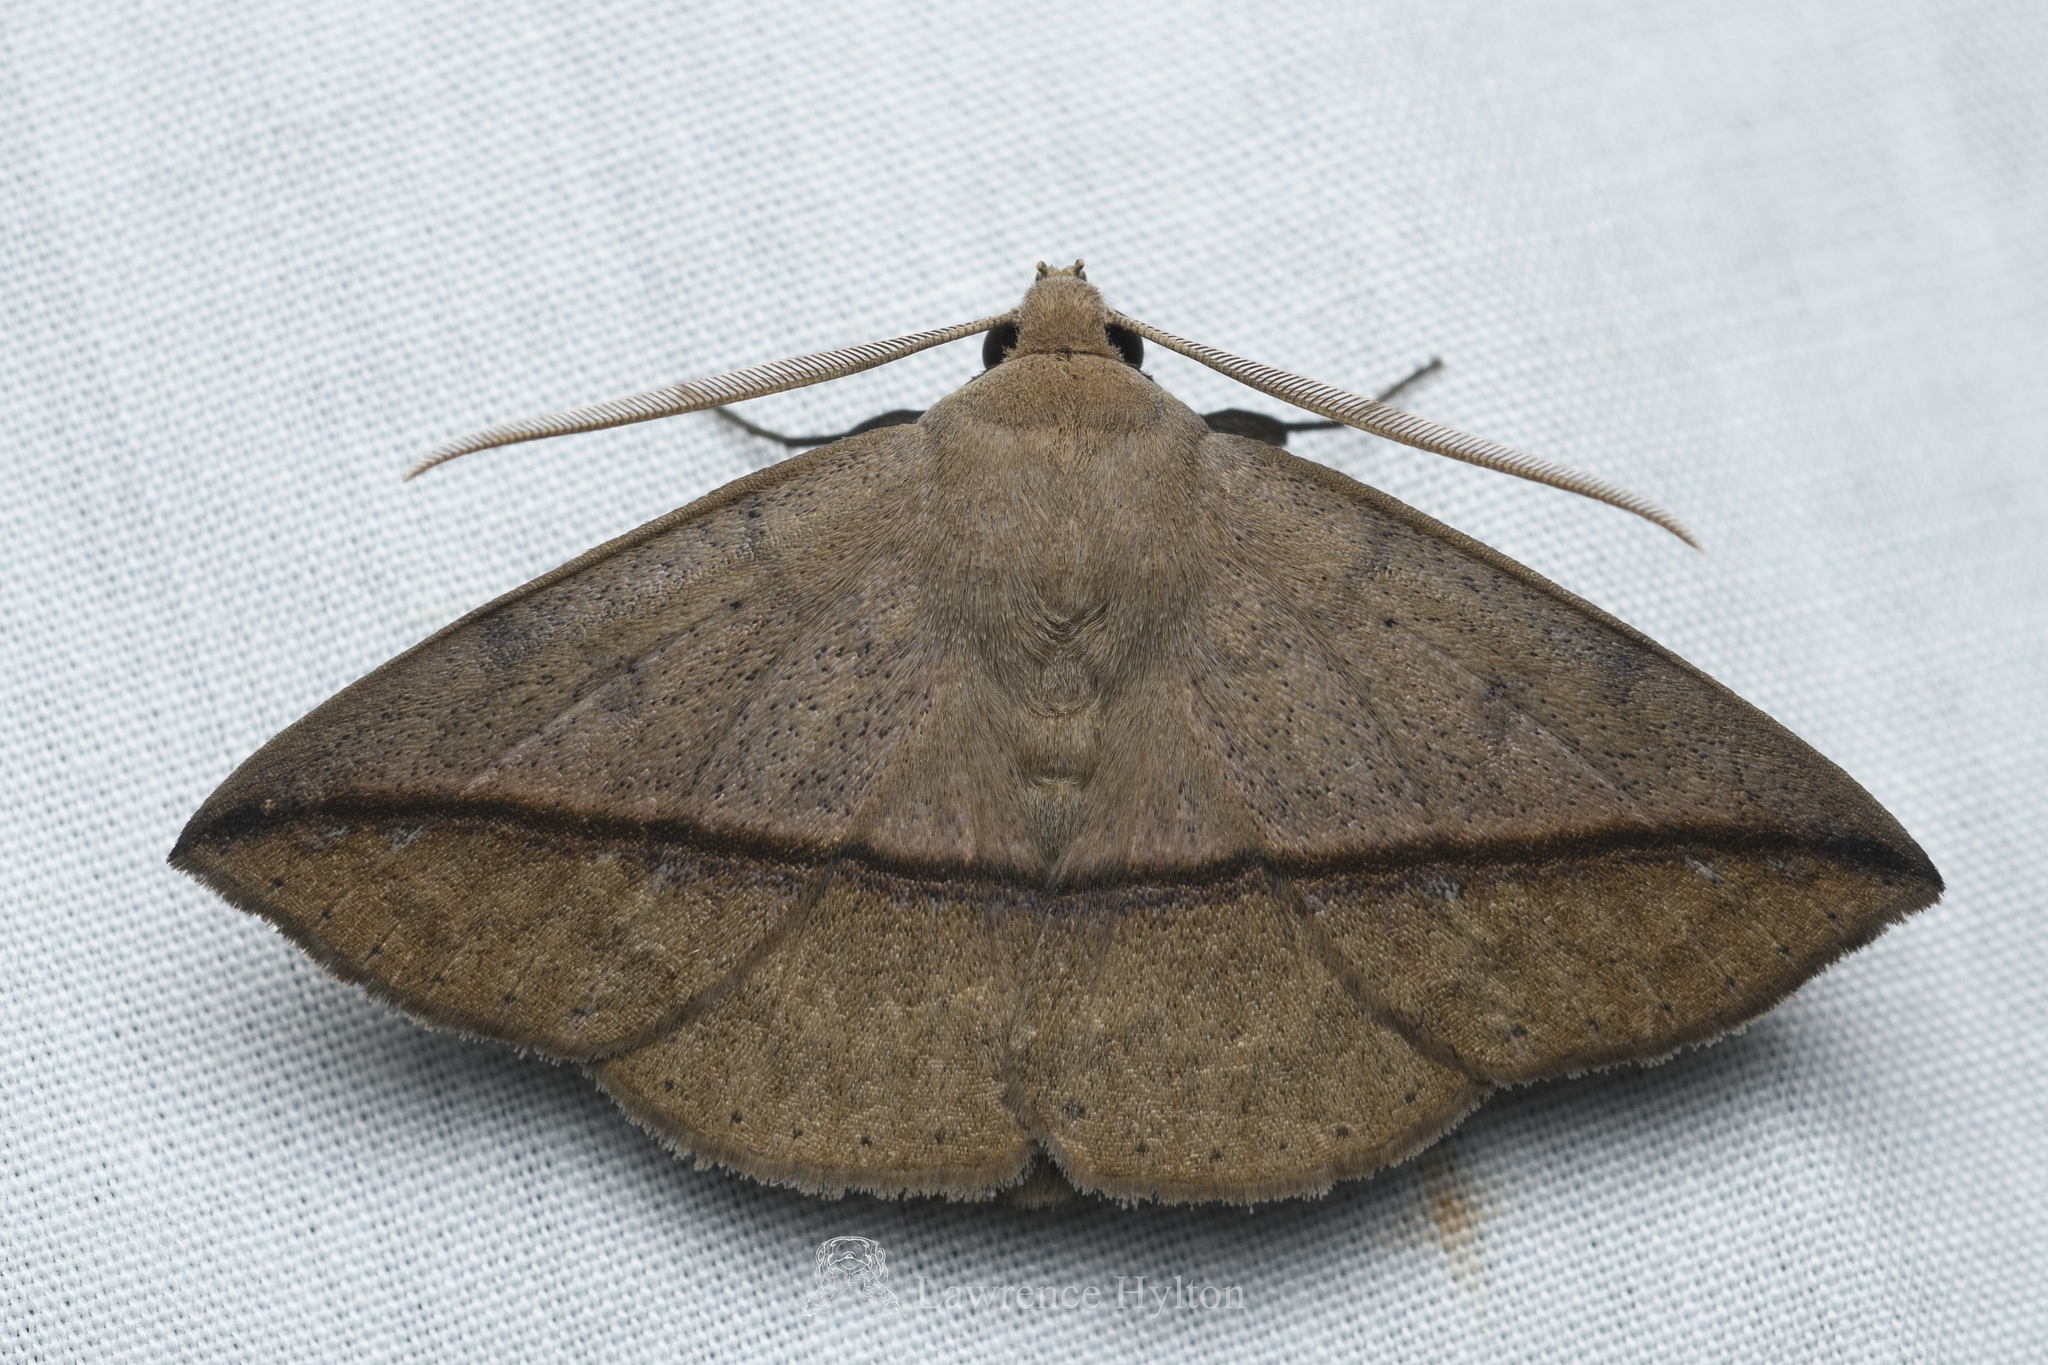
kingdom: Animalia
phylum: Arthropoda
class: Insecta
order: Lepidoptera
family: Erebidae
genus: Ugia
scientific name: Ugia purpurea
